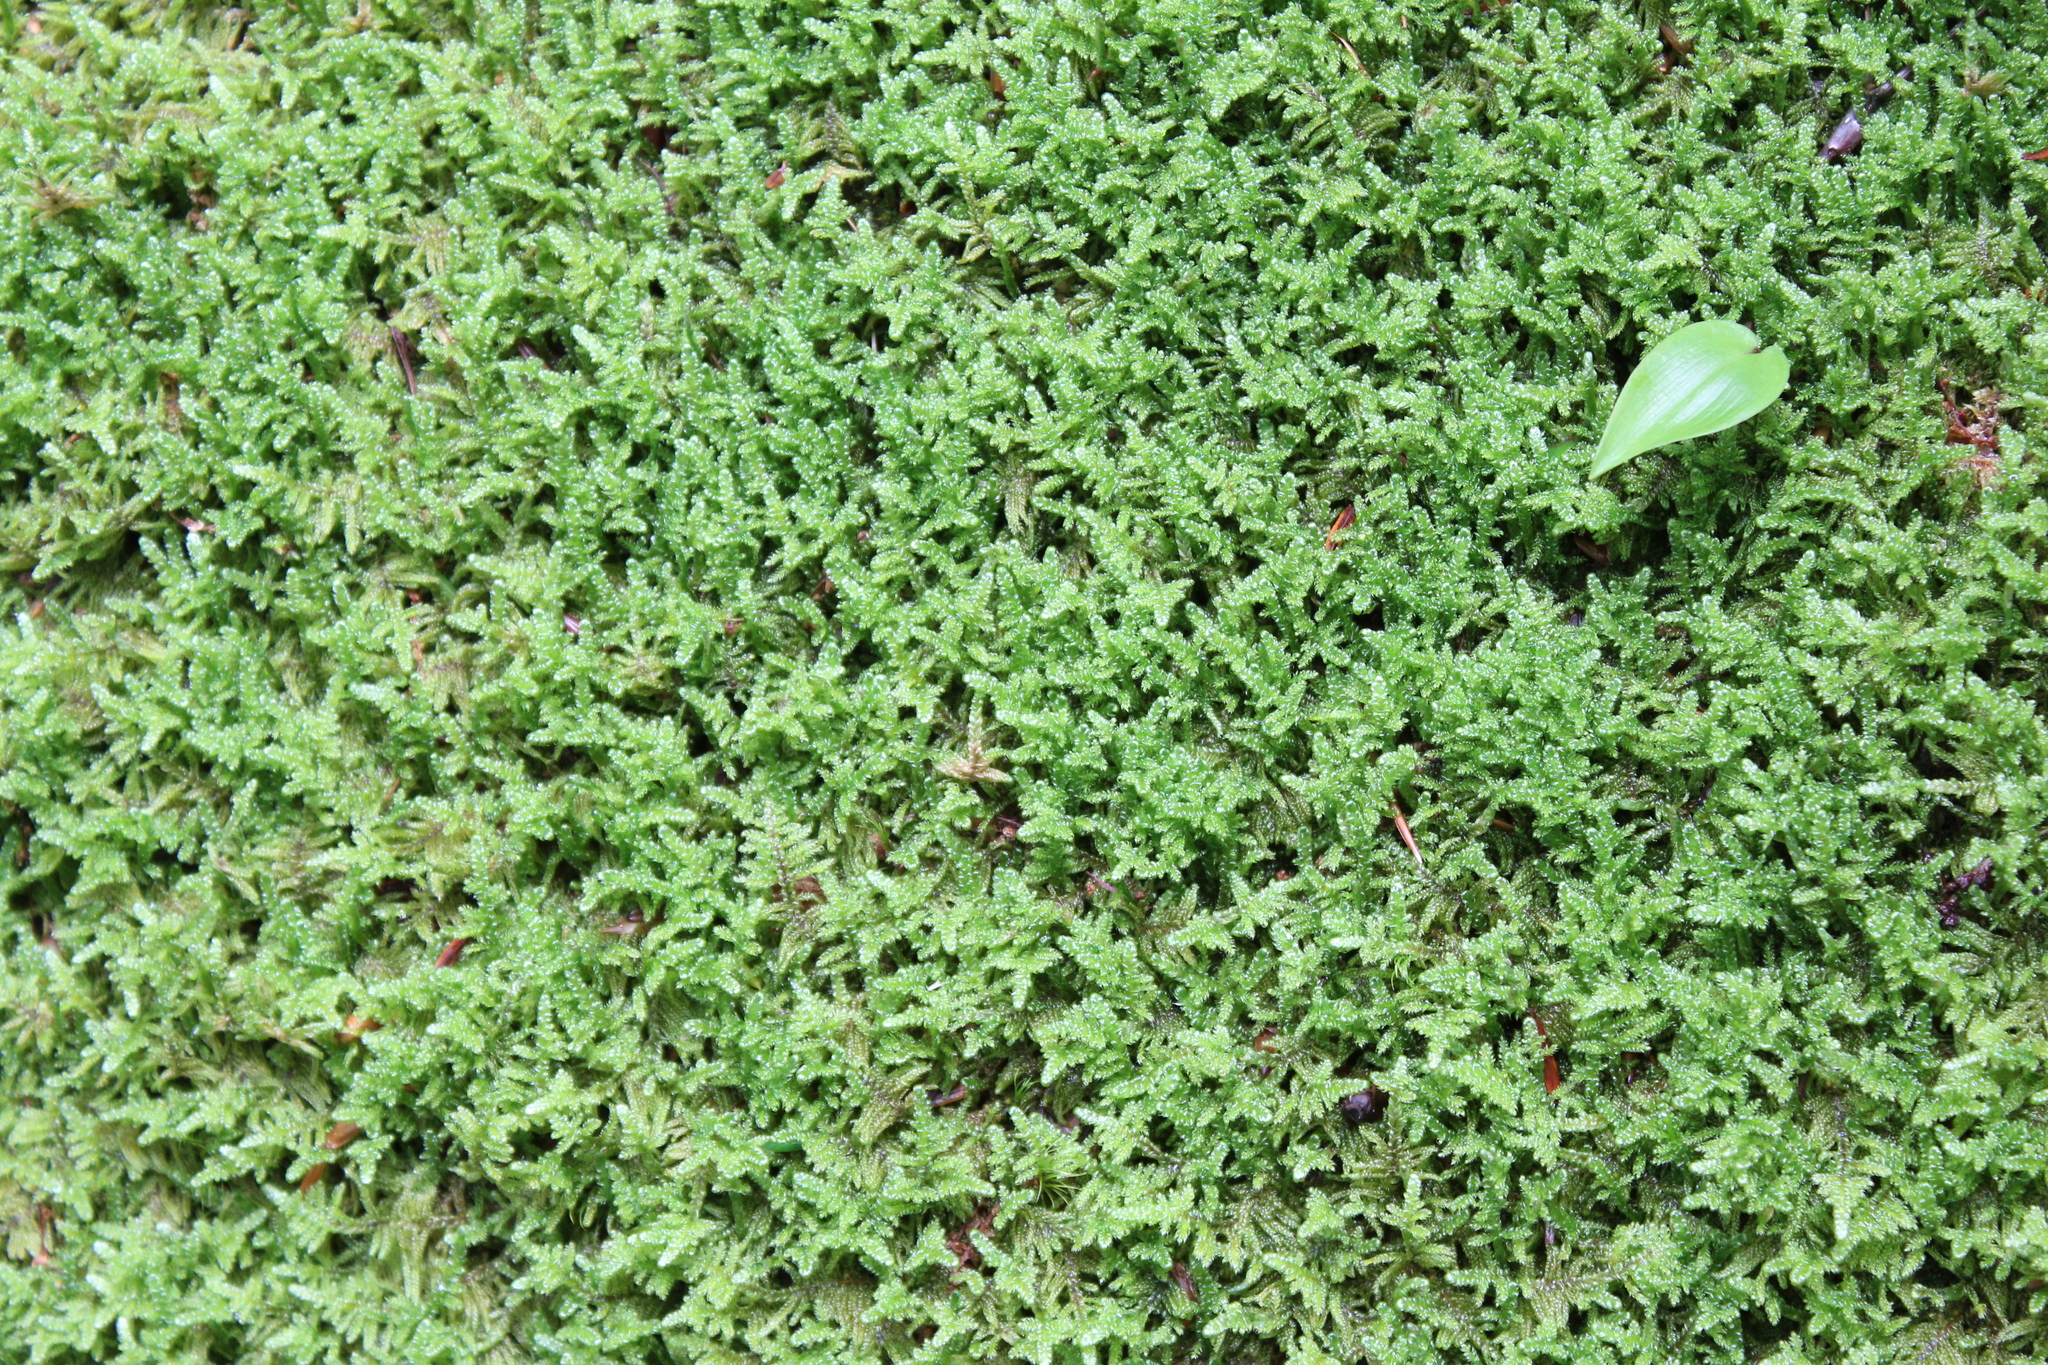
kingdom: Plantae
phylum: Bryophyta
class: Bryopsida
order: Hypnales
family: Callicladiaceae
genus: Callicladium
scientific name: Callicladium imponens
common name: Brocade moss
